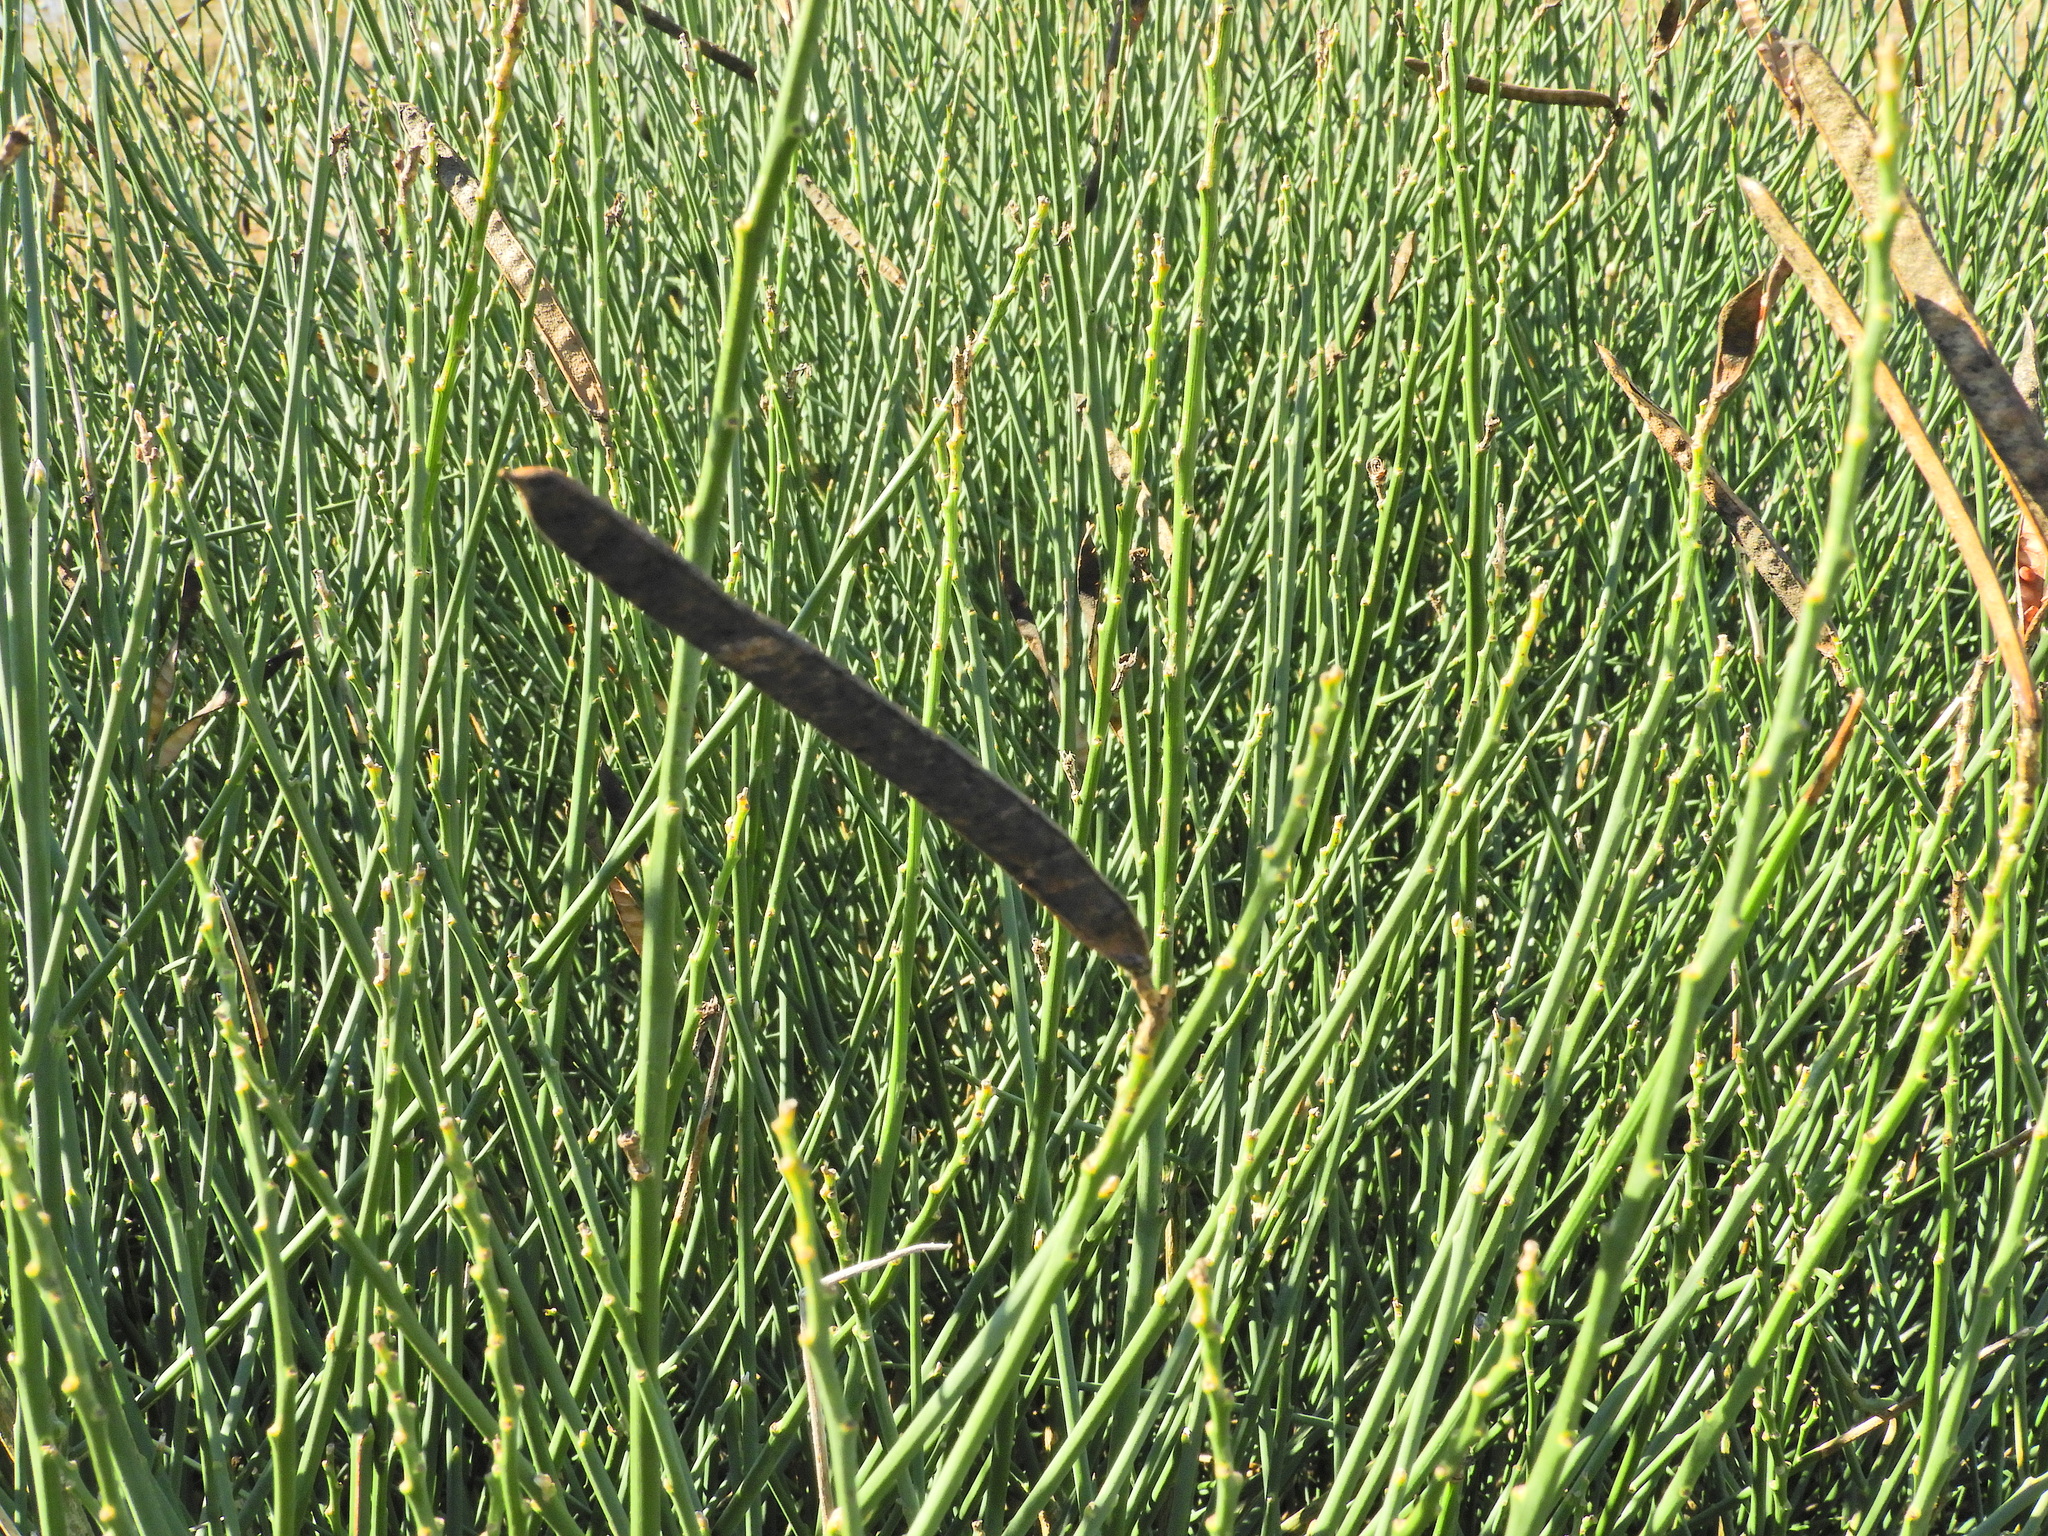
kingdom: Plantae
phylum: Tracheophyta
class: Magnoliopsida
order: Fabales
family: Fabaceae
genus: Spartium
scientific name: Spartium junceum
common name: Spanish broom
